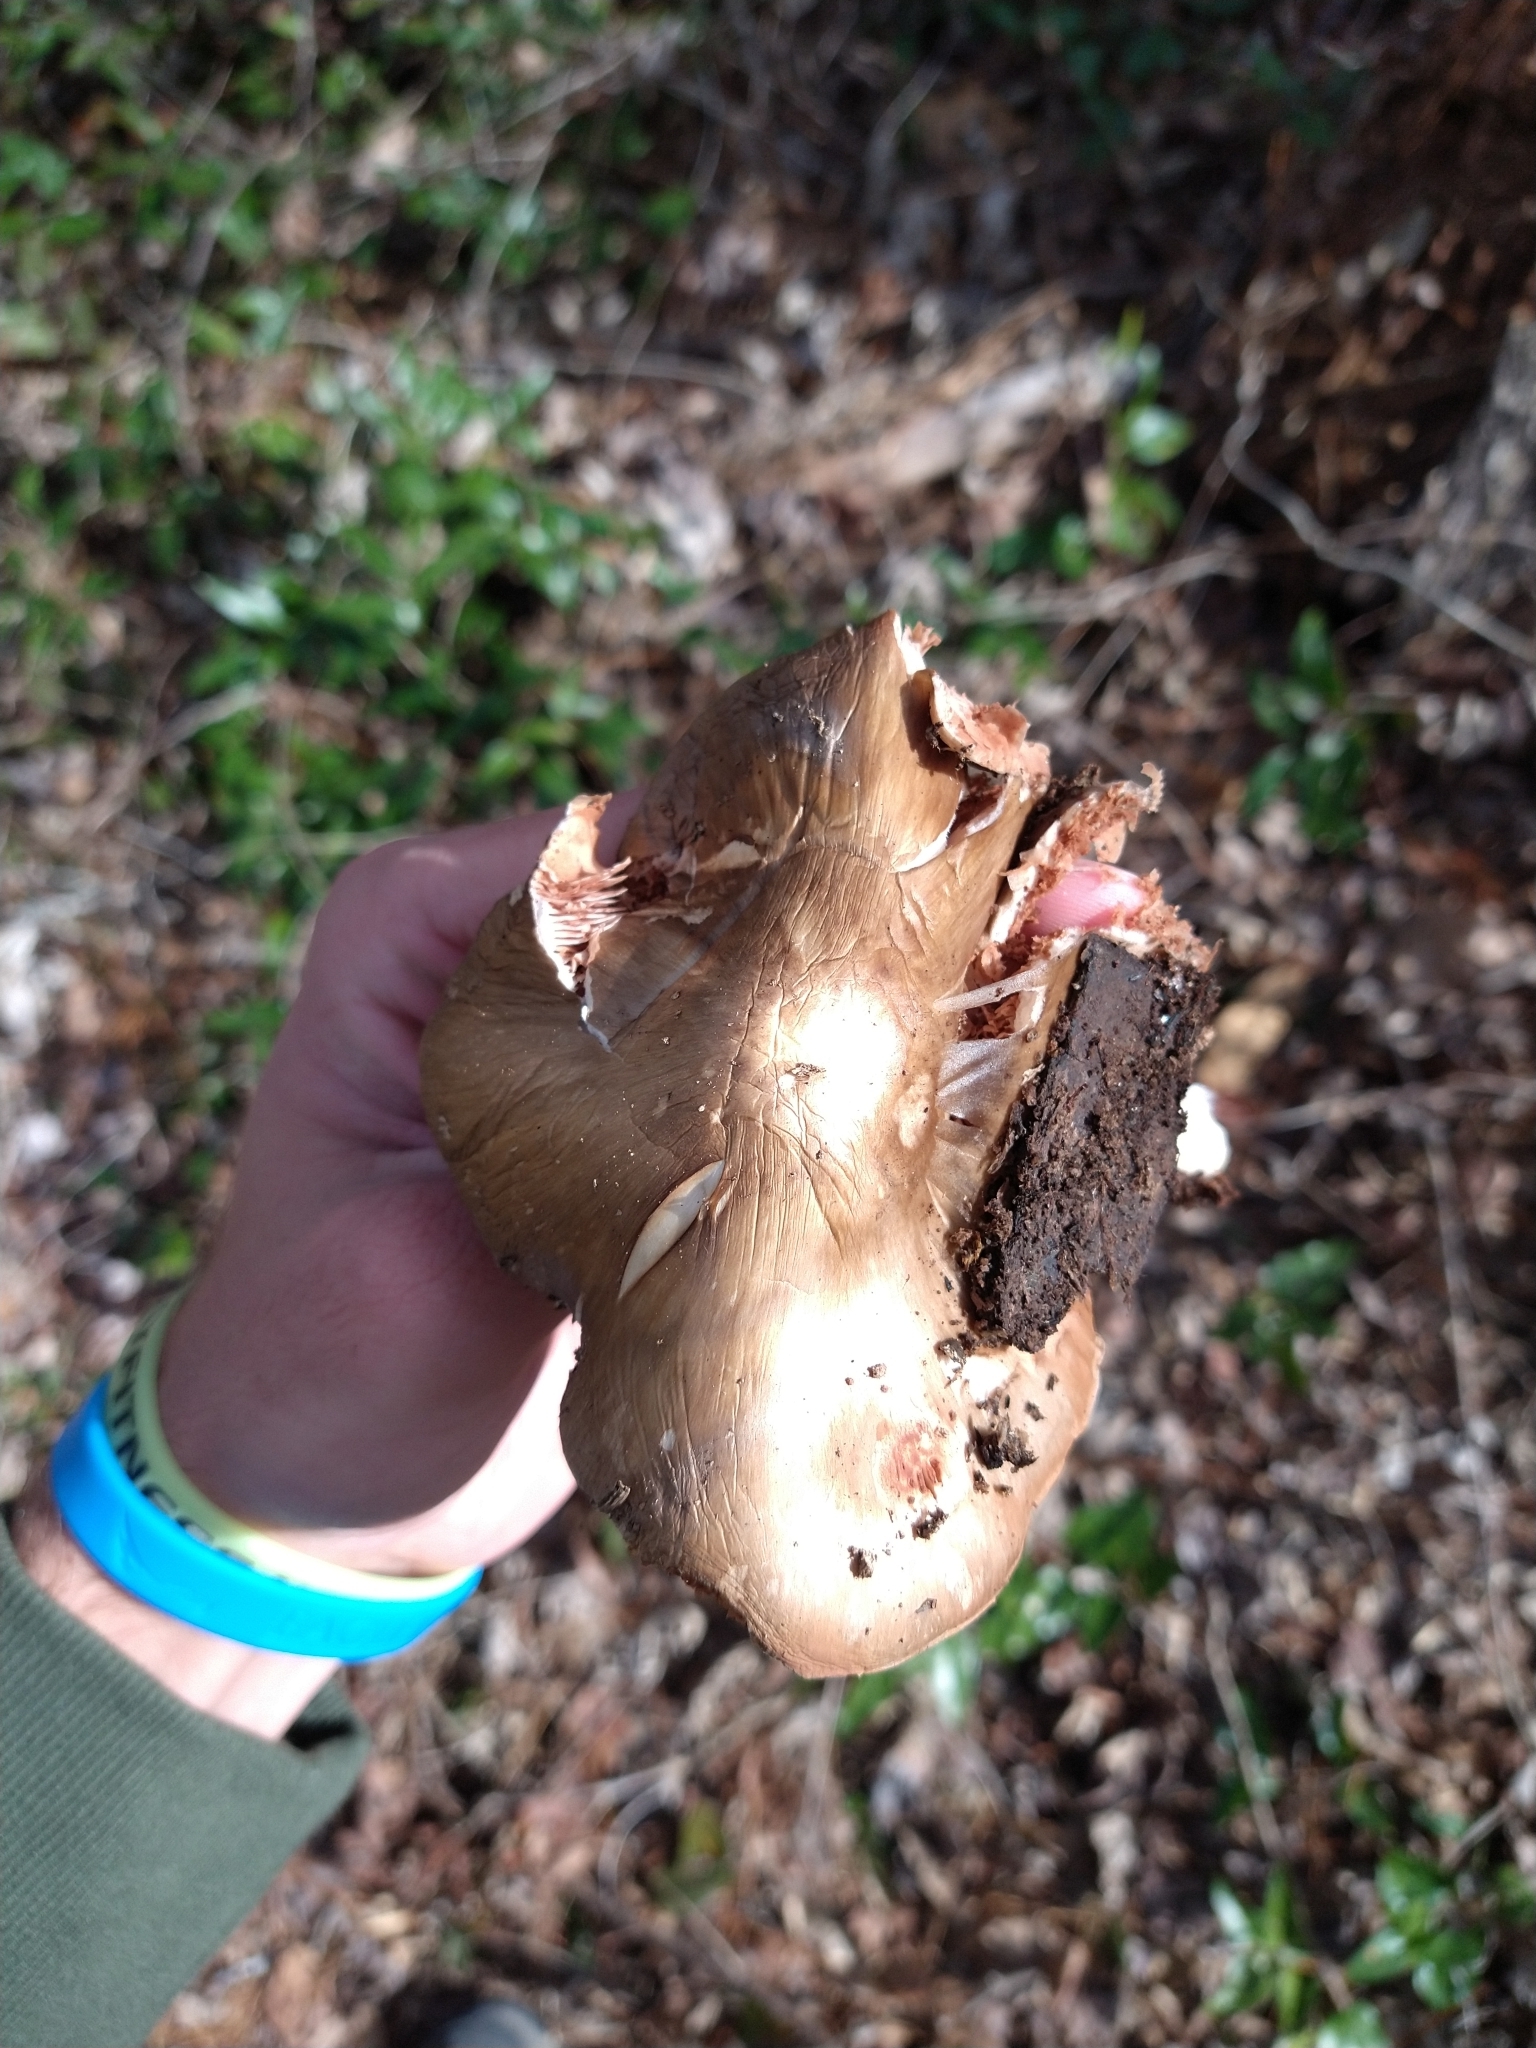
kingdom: Fungi
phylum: Basidiomycota
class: Agaricomycetes
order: Agaricales
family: Pluteaceae
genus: Pluteus
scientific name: Pluteus cervinus
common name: Deer shield
